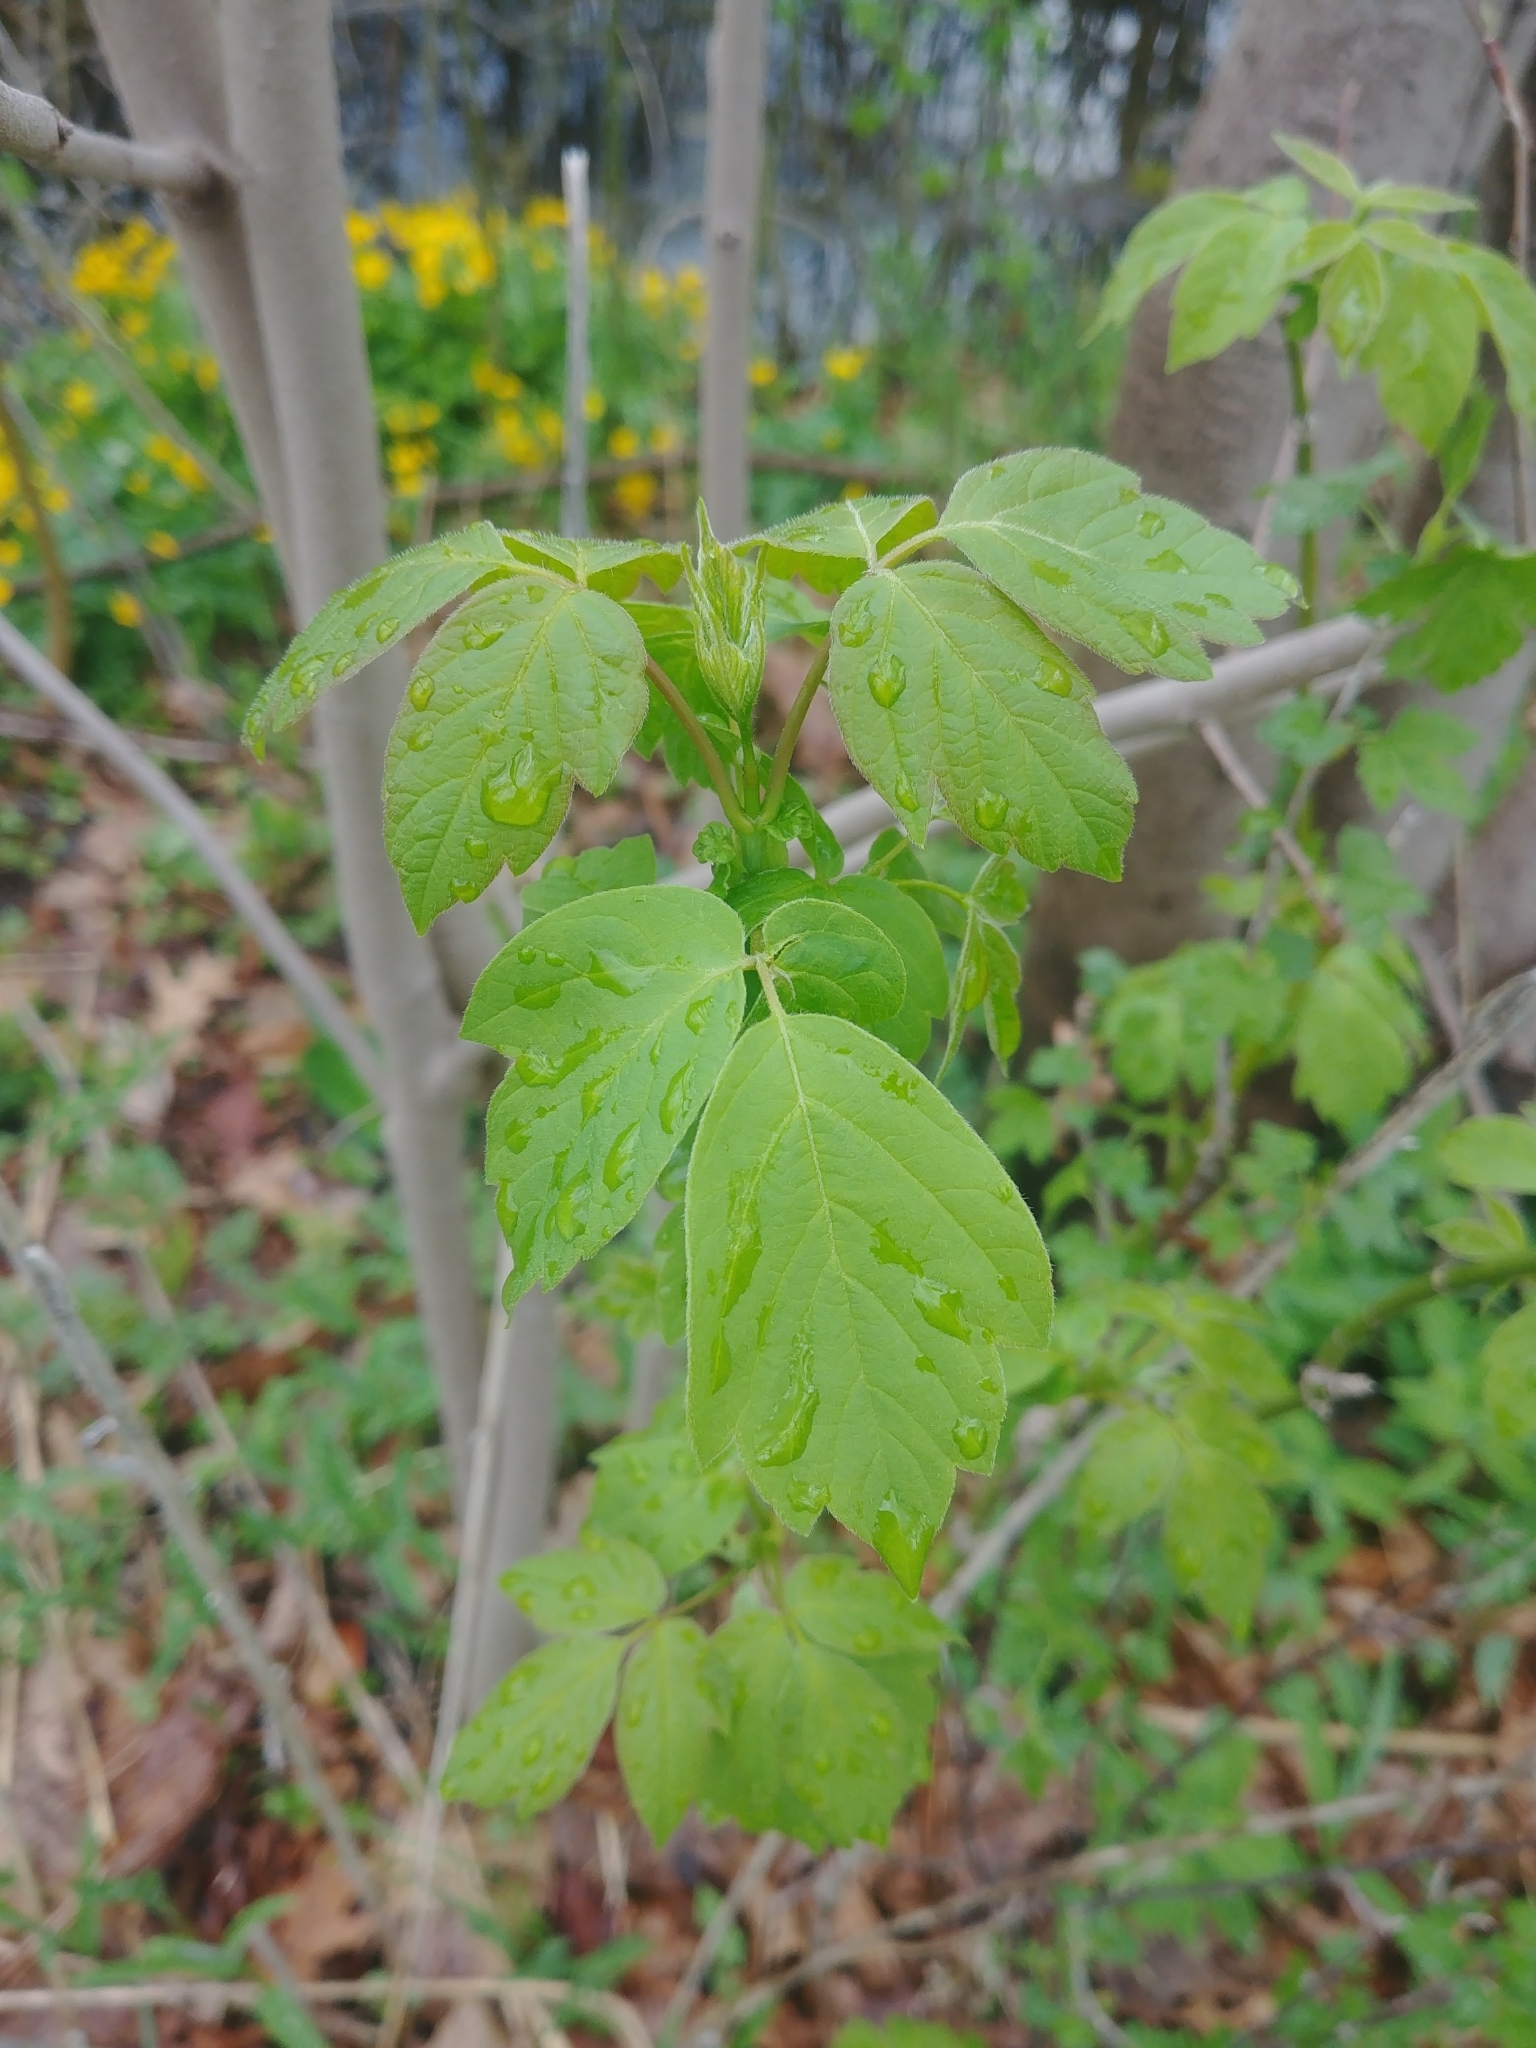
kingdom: Plantae
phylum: Tracheophyta
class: Magnoliopsida
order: Sapindales
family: Sapindaceae
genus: Acer
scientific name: Acer negundo
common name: Ashleaf maple
